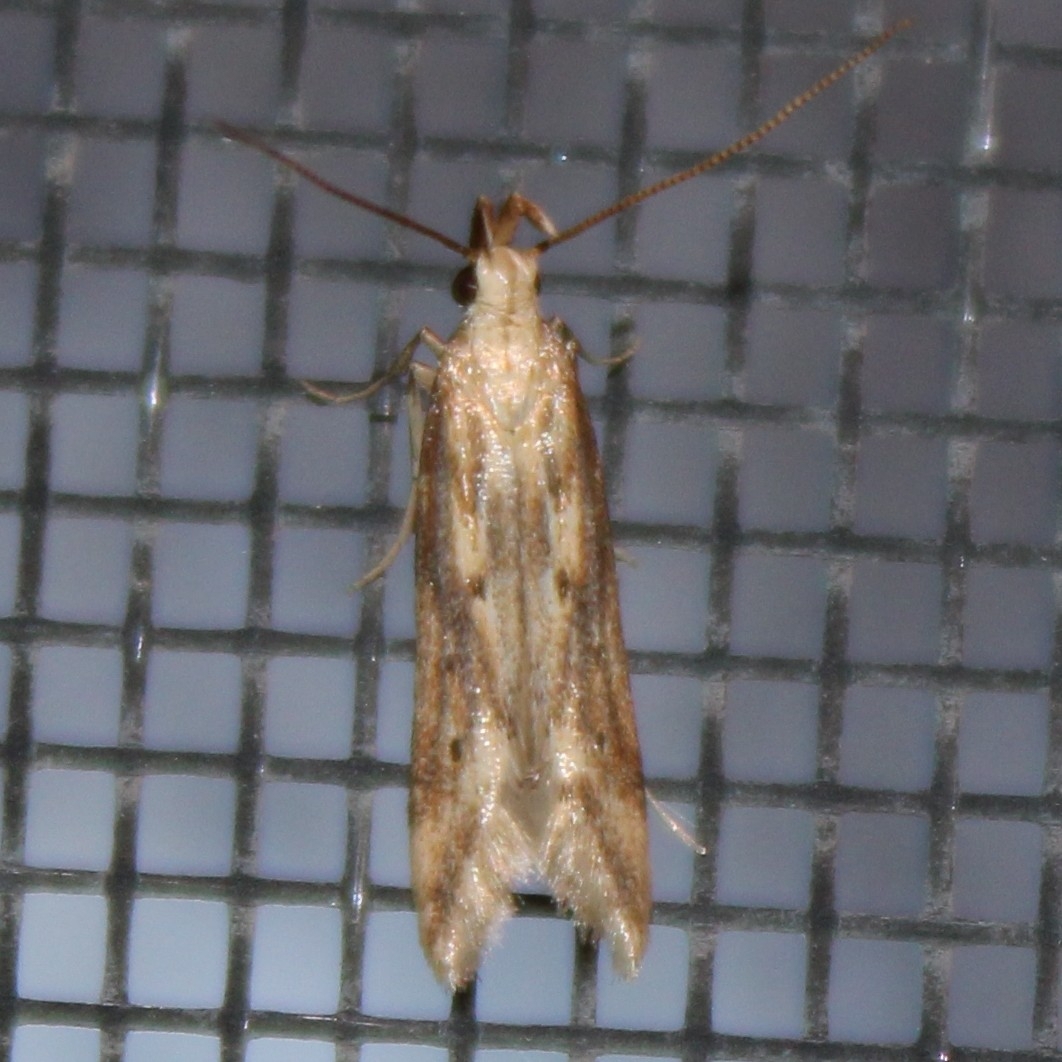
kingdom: Animalia
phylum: Arthropoda
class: Insecta
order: Lepidoptera
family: Gelechiidae
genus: Metzneria
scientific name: Metzneria lappella
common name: Burdock neb
